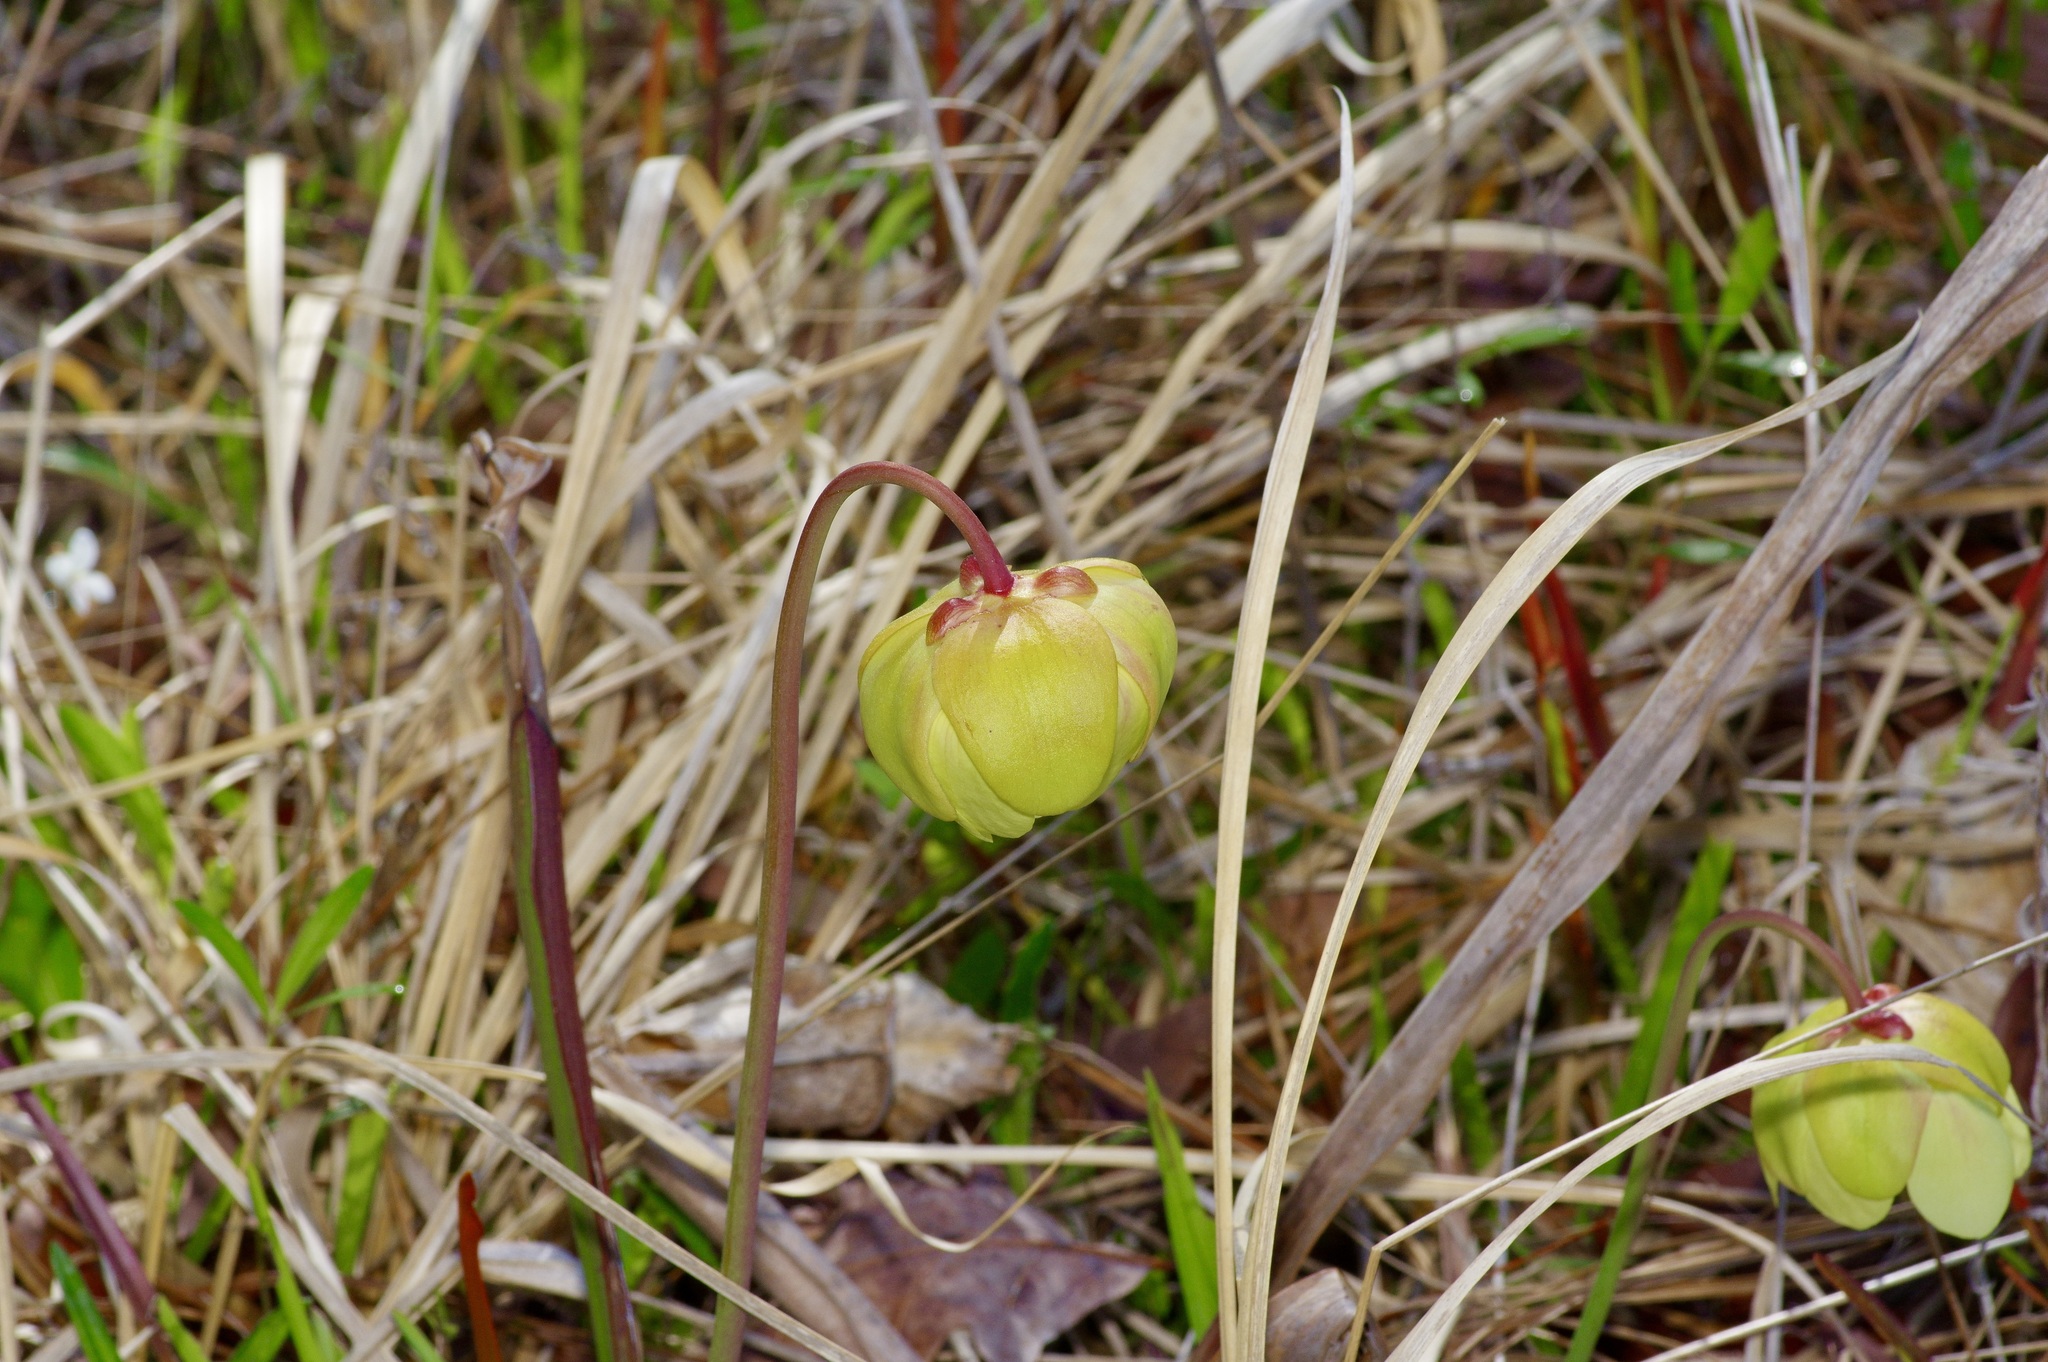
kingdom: Plantae
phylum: Tracheophyta
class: Magnoliopsida
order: Ericales
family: Sarraceniaceae
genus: Sarracenia
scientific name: Sarracenia alata
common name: Yellow trumpets
